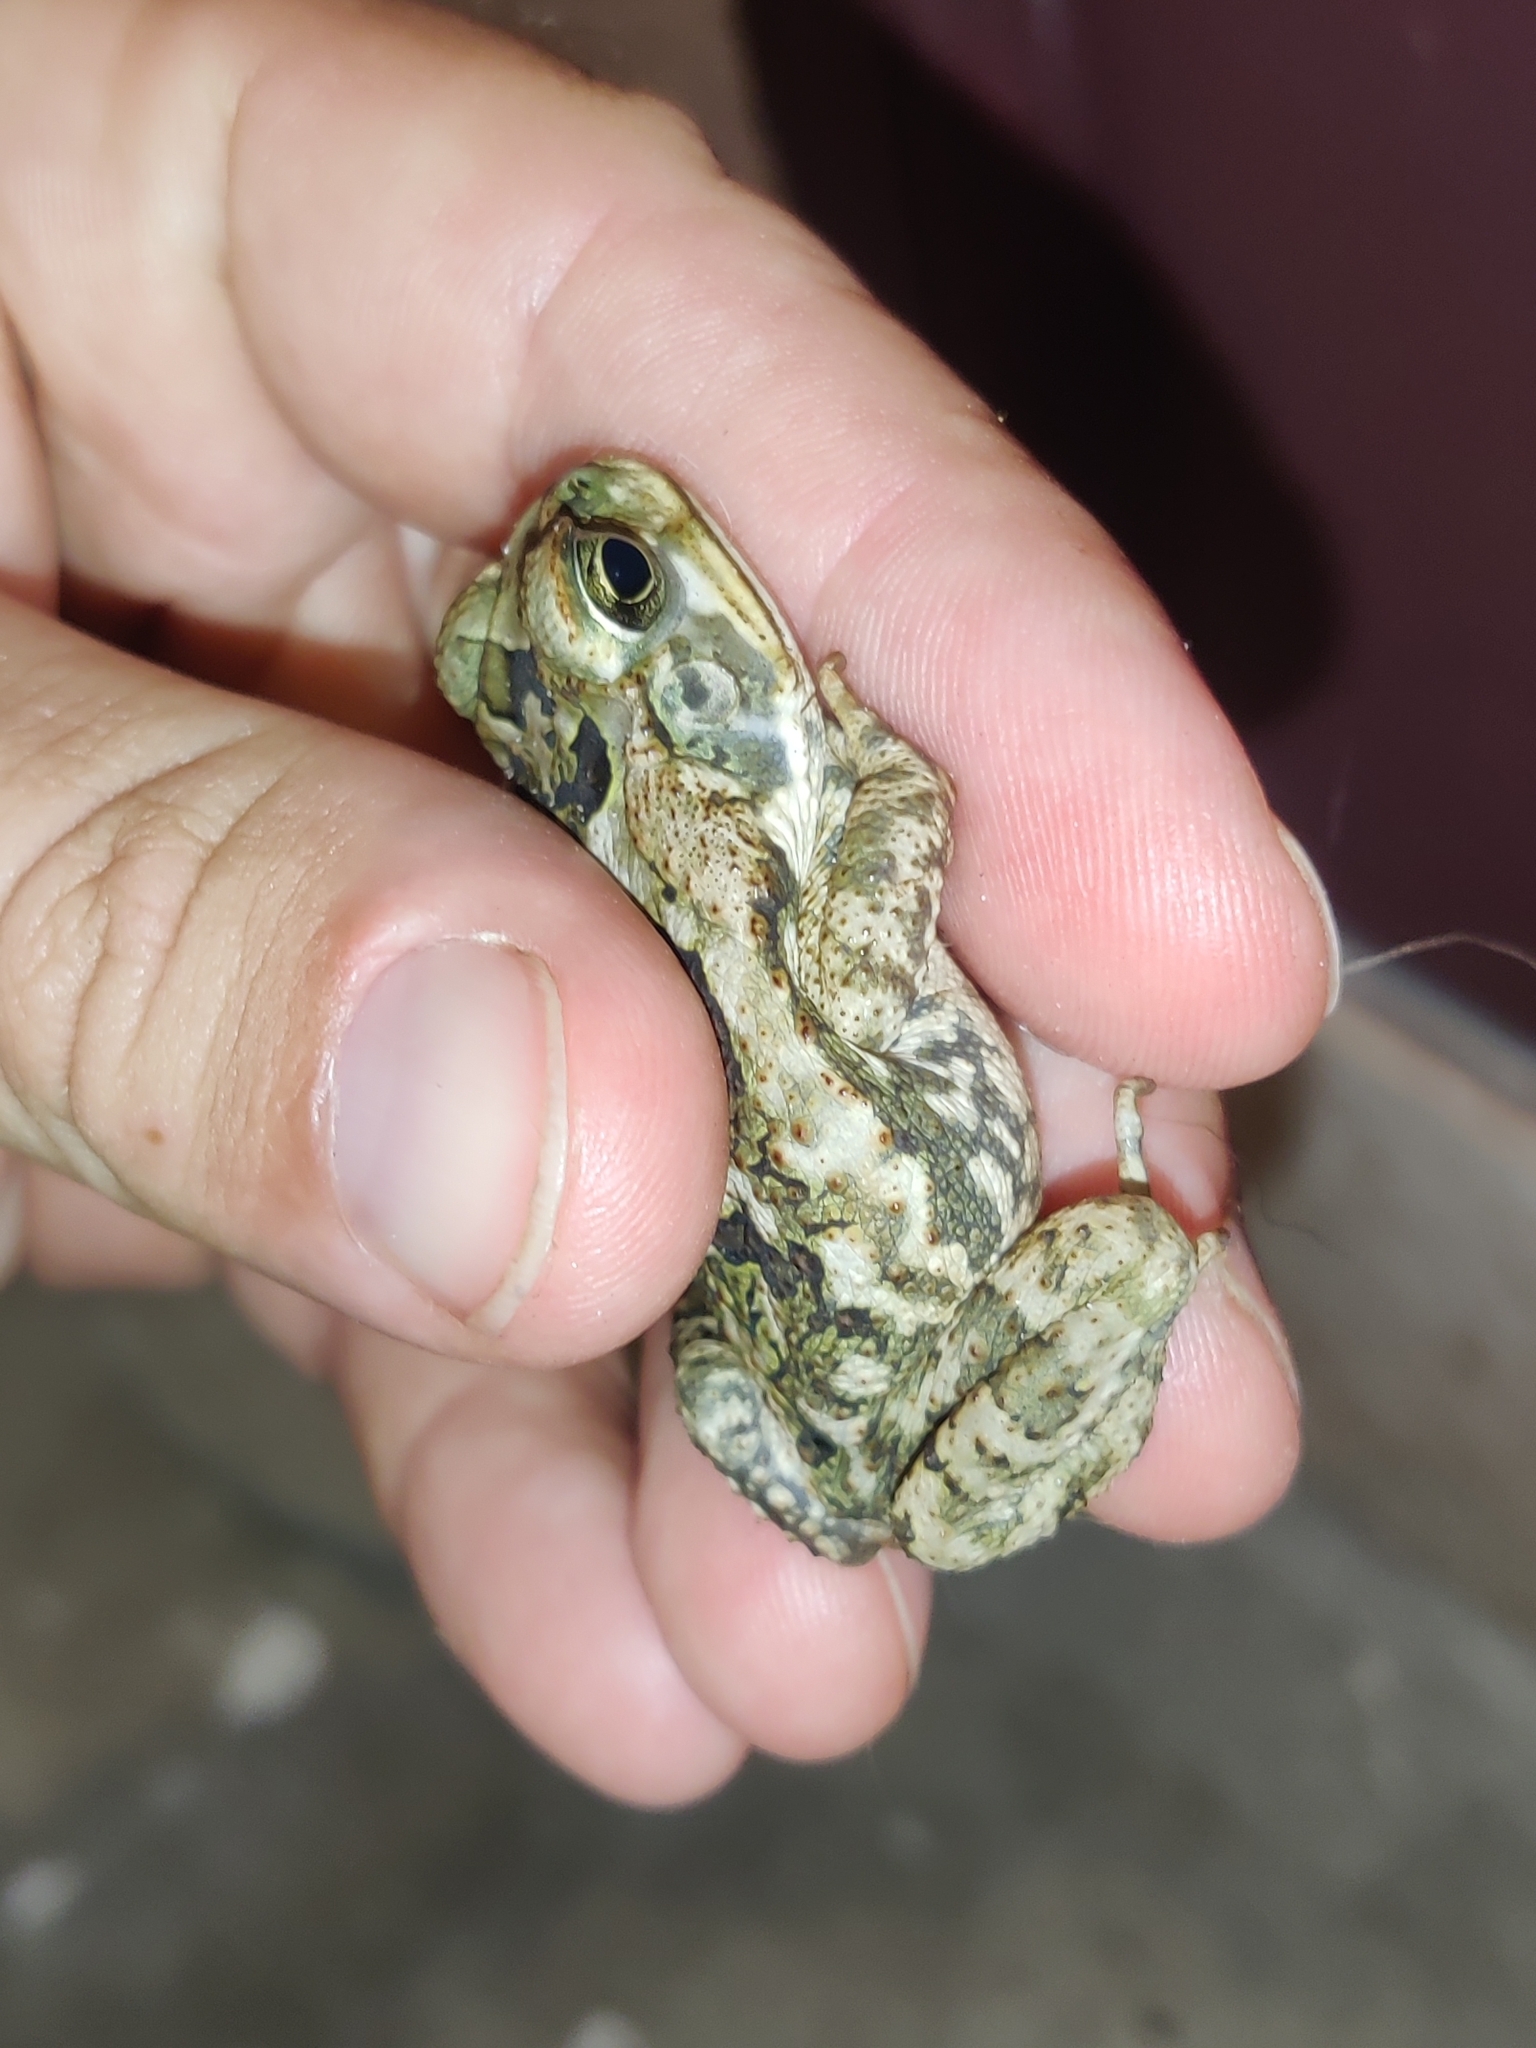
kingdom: Animalia
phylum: Chordata
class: Amphibia
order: Anura
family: Bufonidae
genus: Rhinella
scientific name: Rhinella marina
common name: Cane toad
